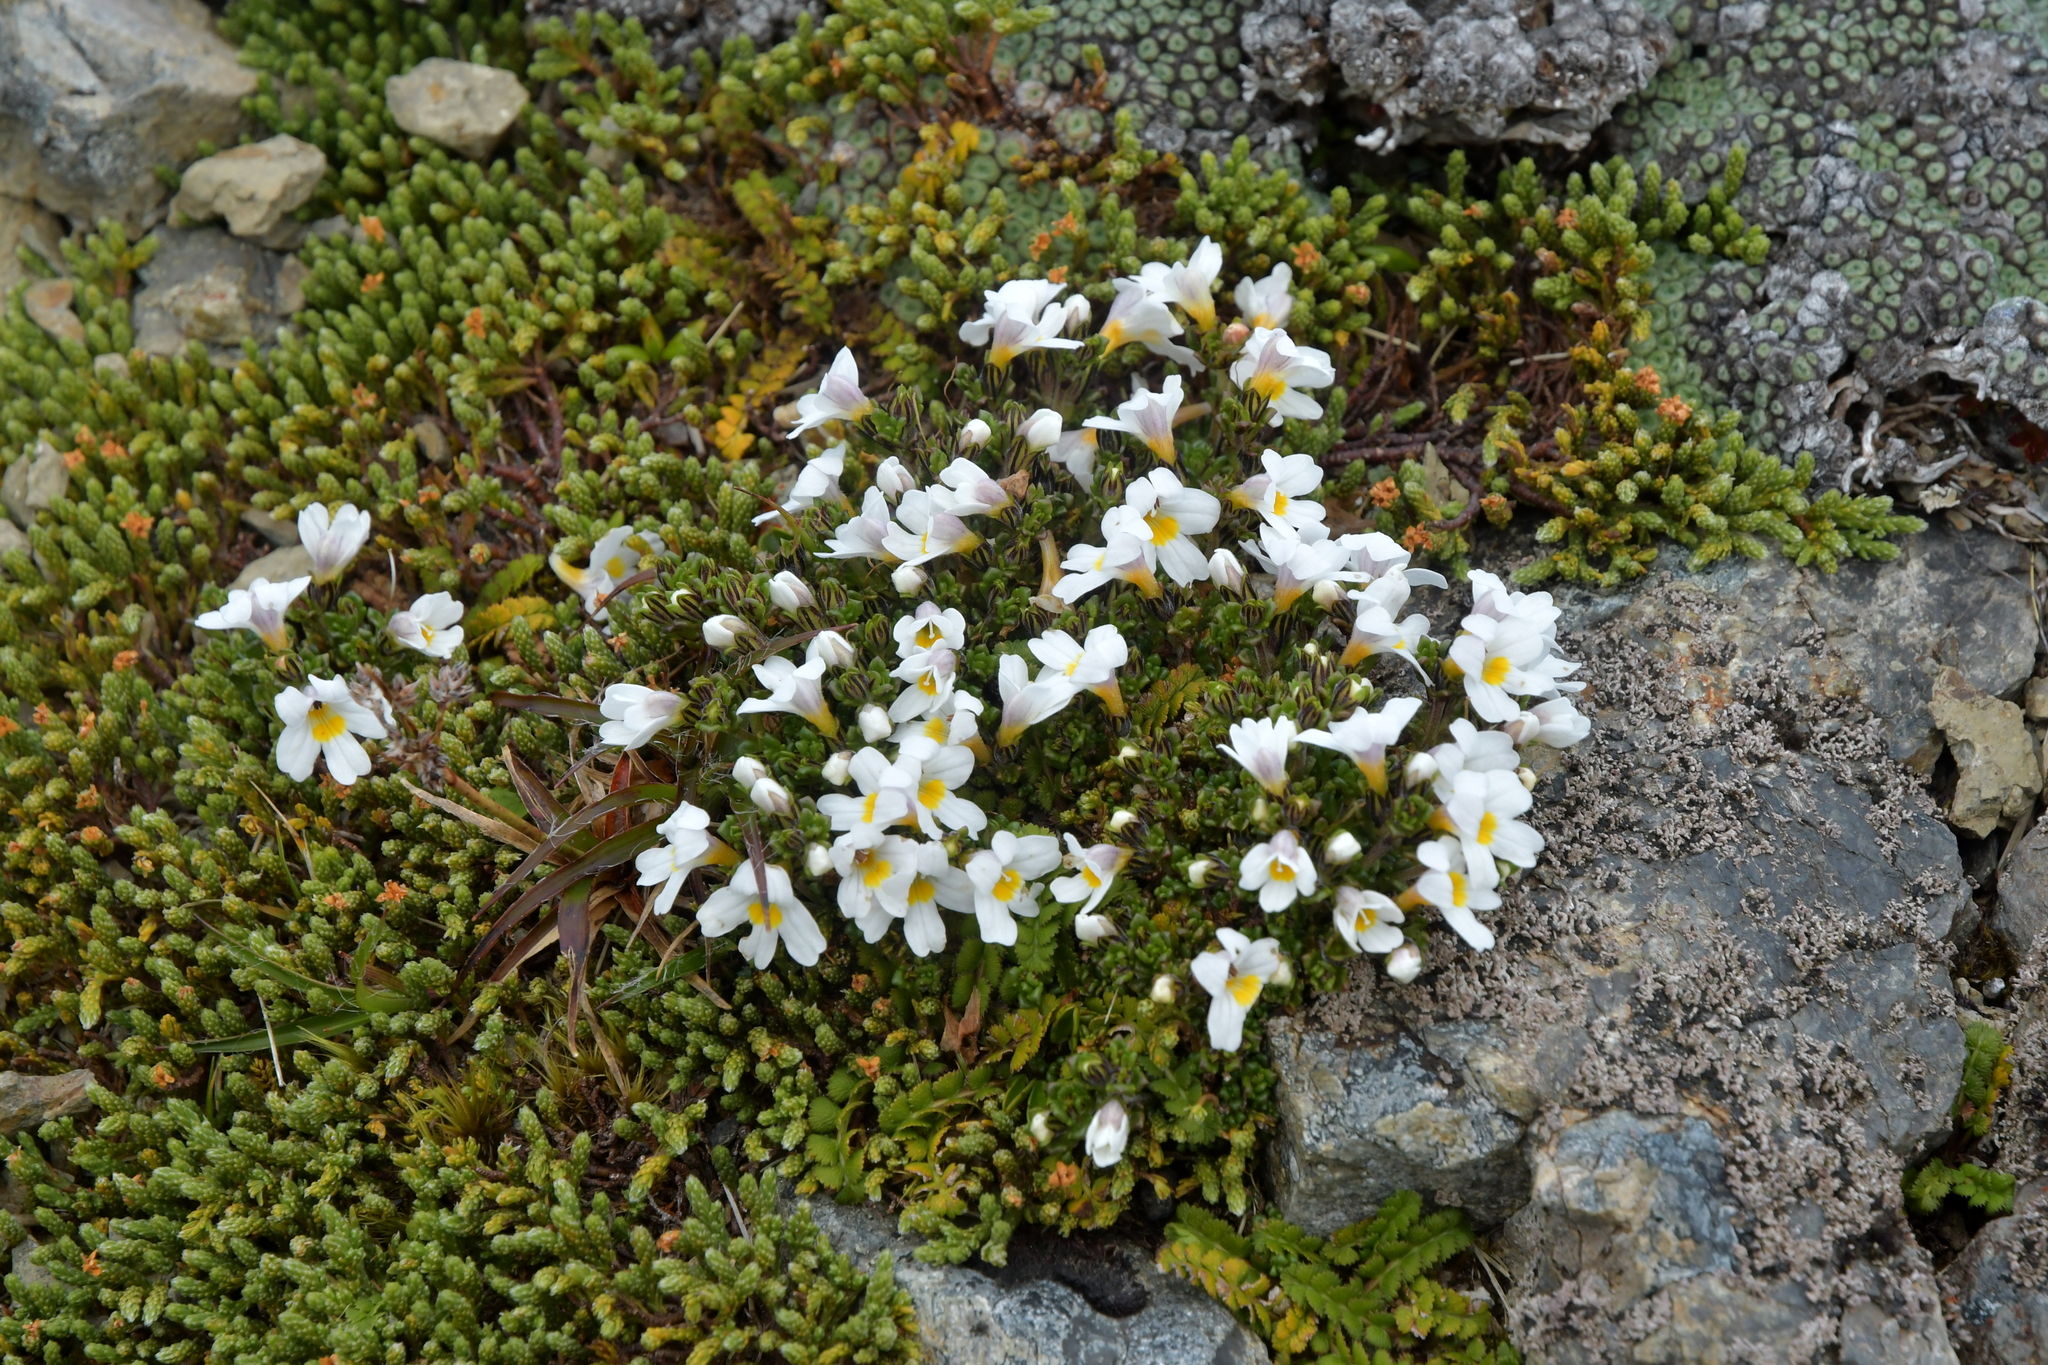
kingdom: Plantae
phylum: Tracheophyta
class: Magnoliopsida
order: Lamiales
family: Orobanchaceae
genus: Euphrasia
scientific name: Euphrasia revoluta
